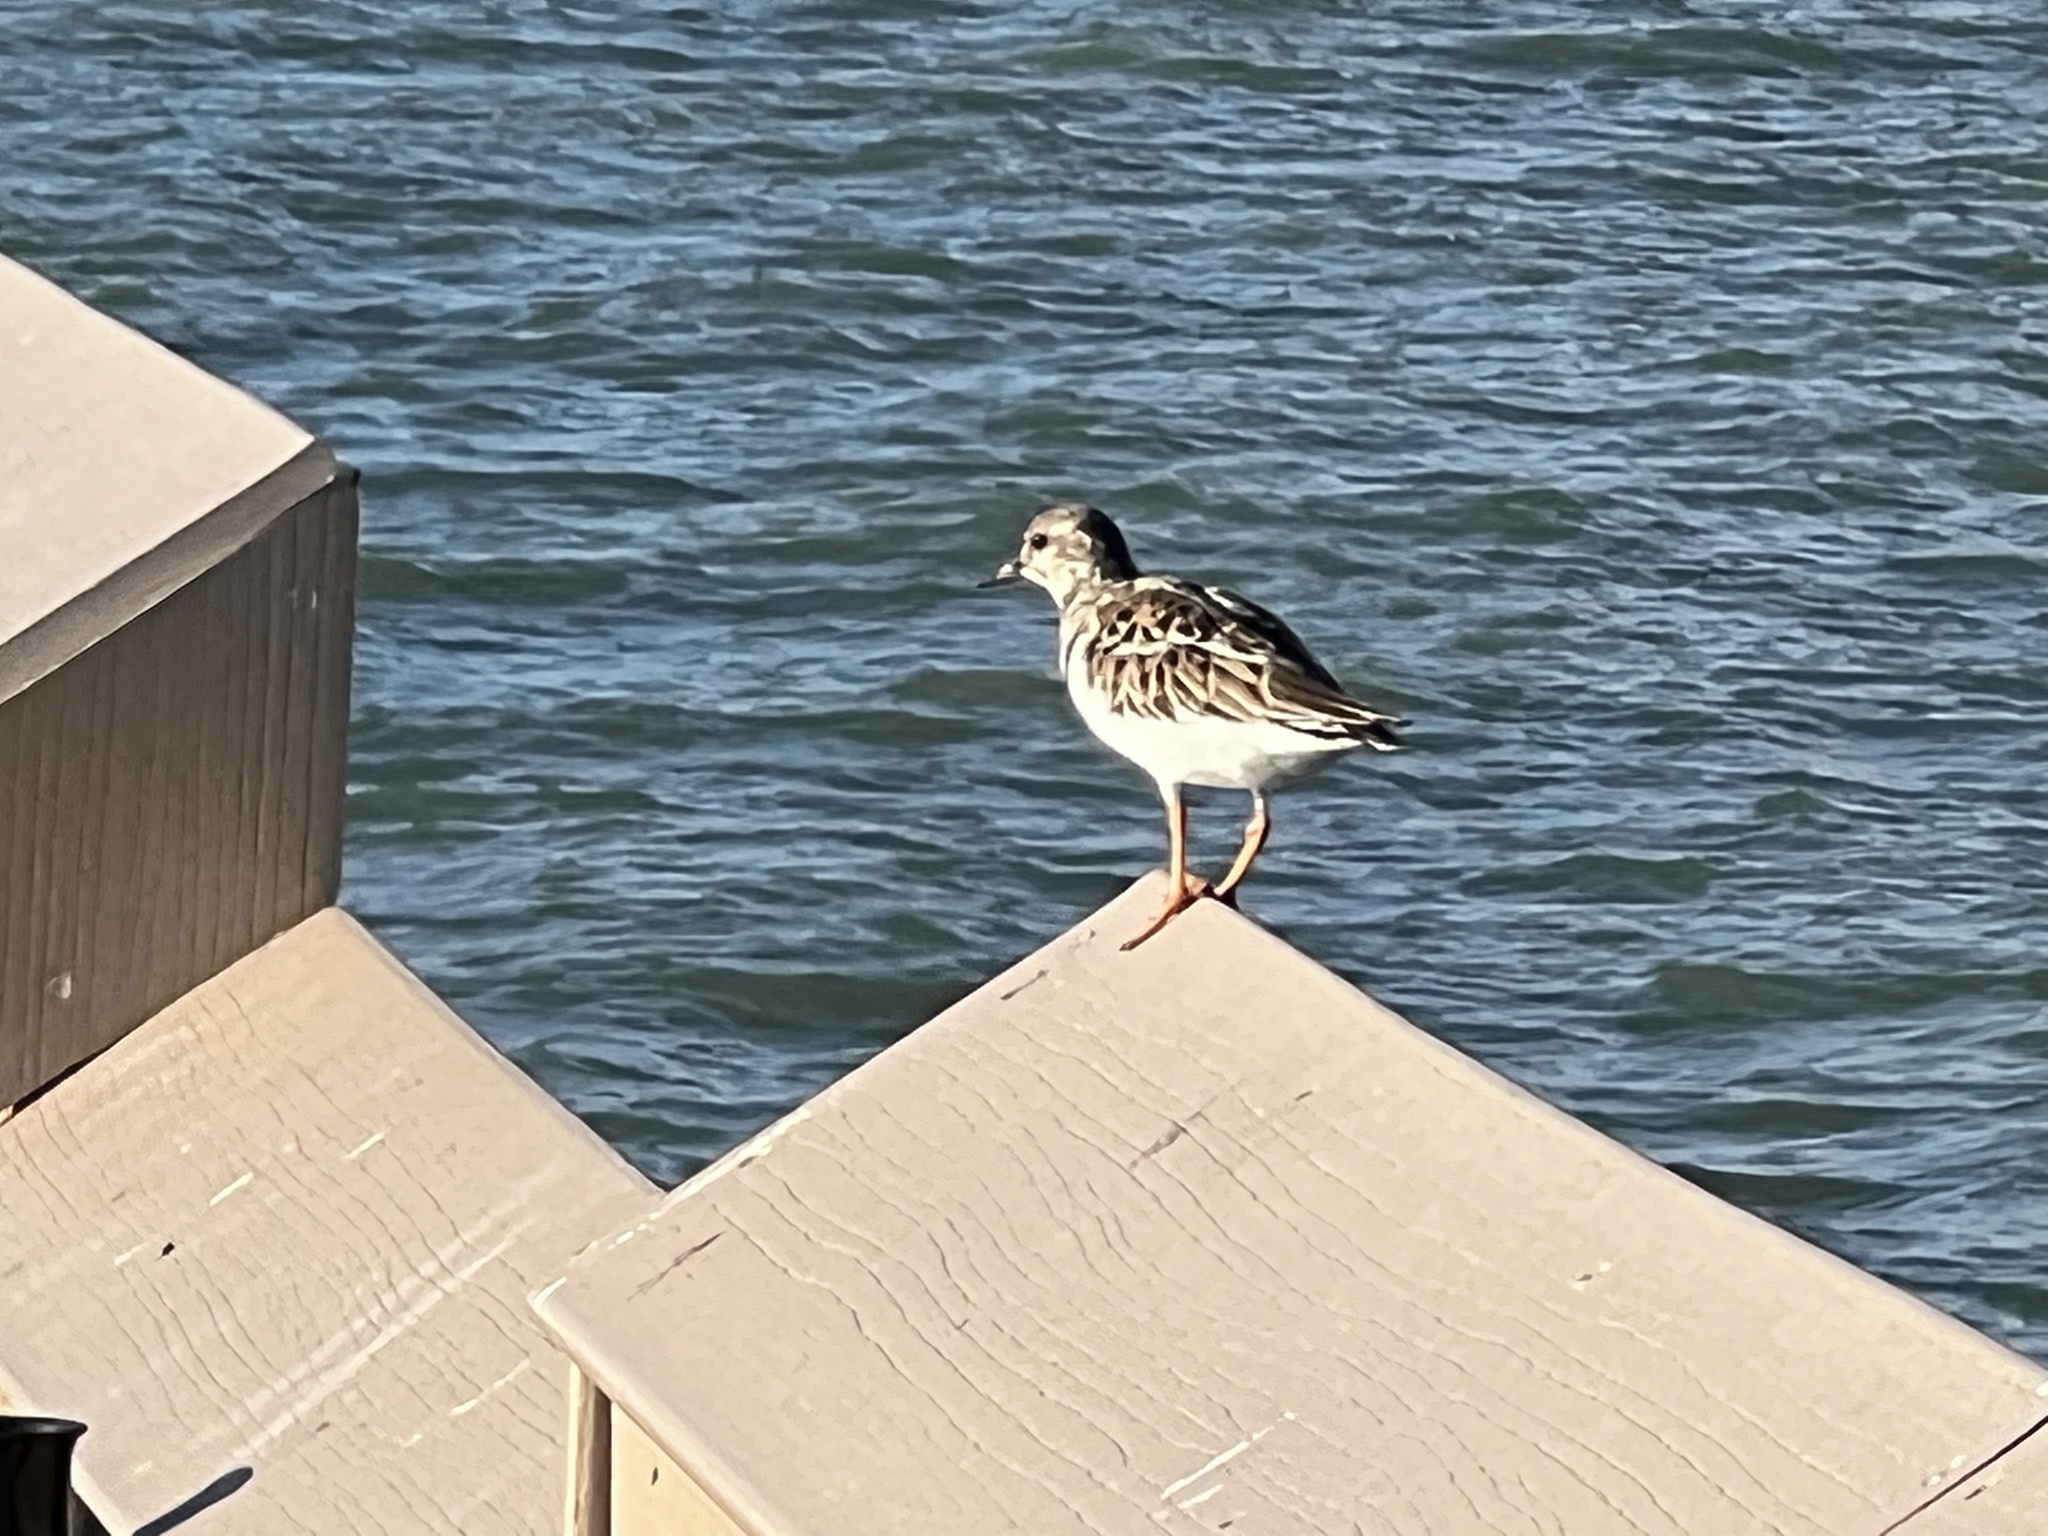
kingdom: Animalia
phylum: Chordata
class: Aves
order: Charadriiformes
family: Scolopacidae
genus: Arenaria
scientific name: Arenaria interpres
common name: Ruddy turnstone
